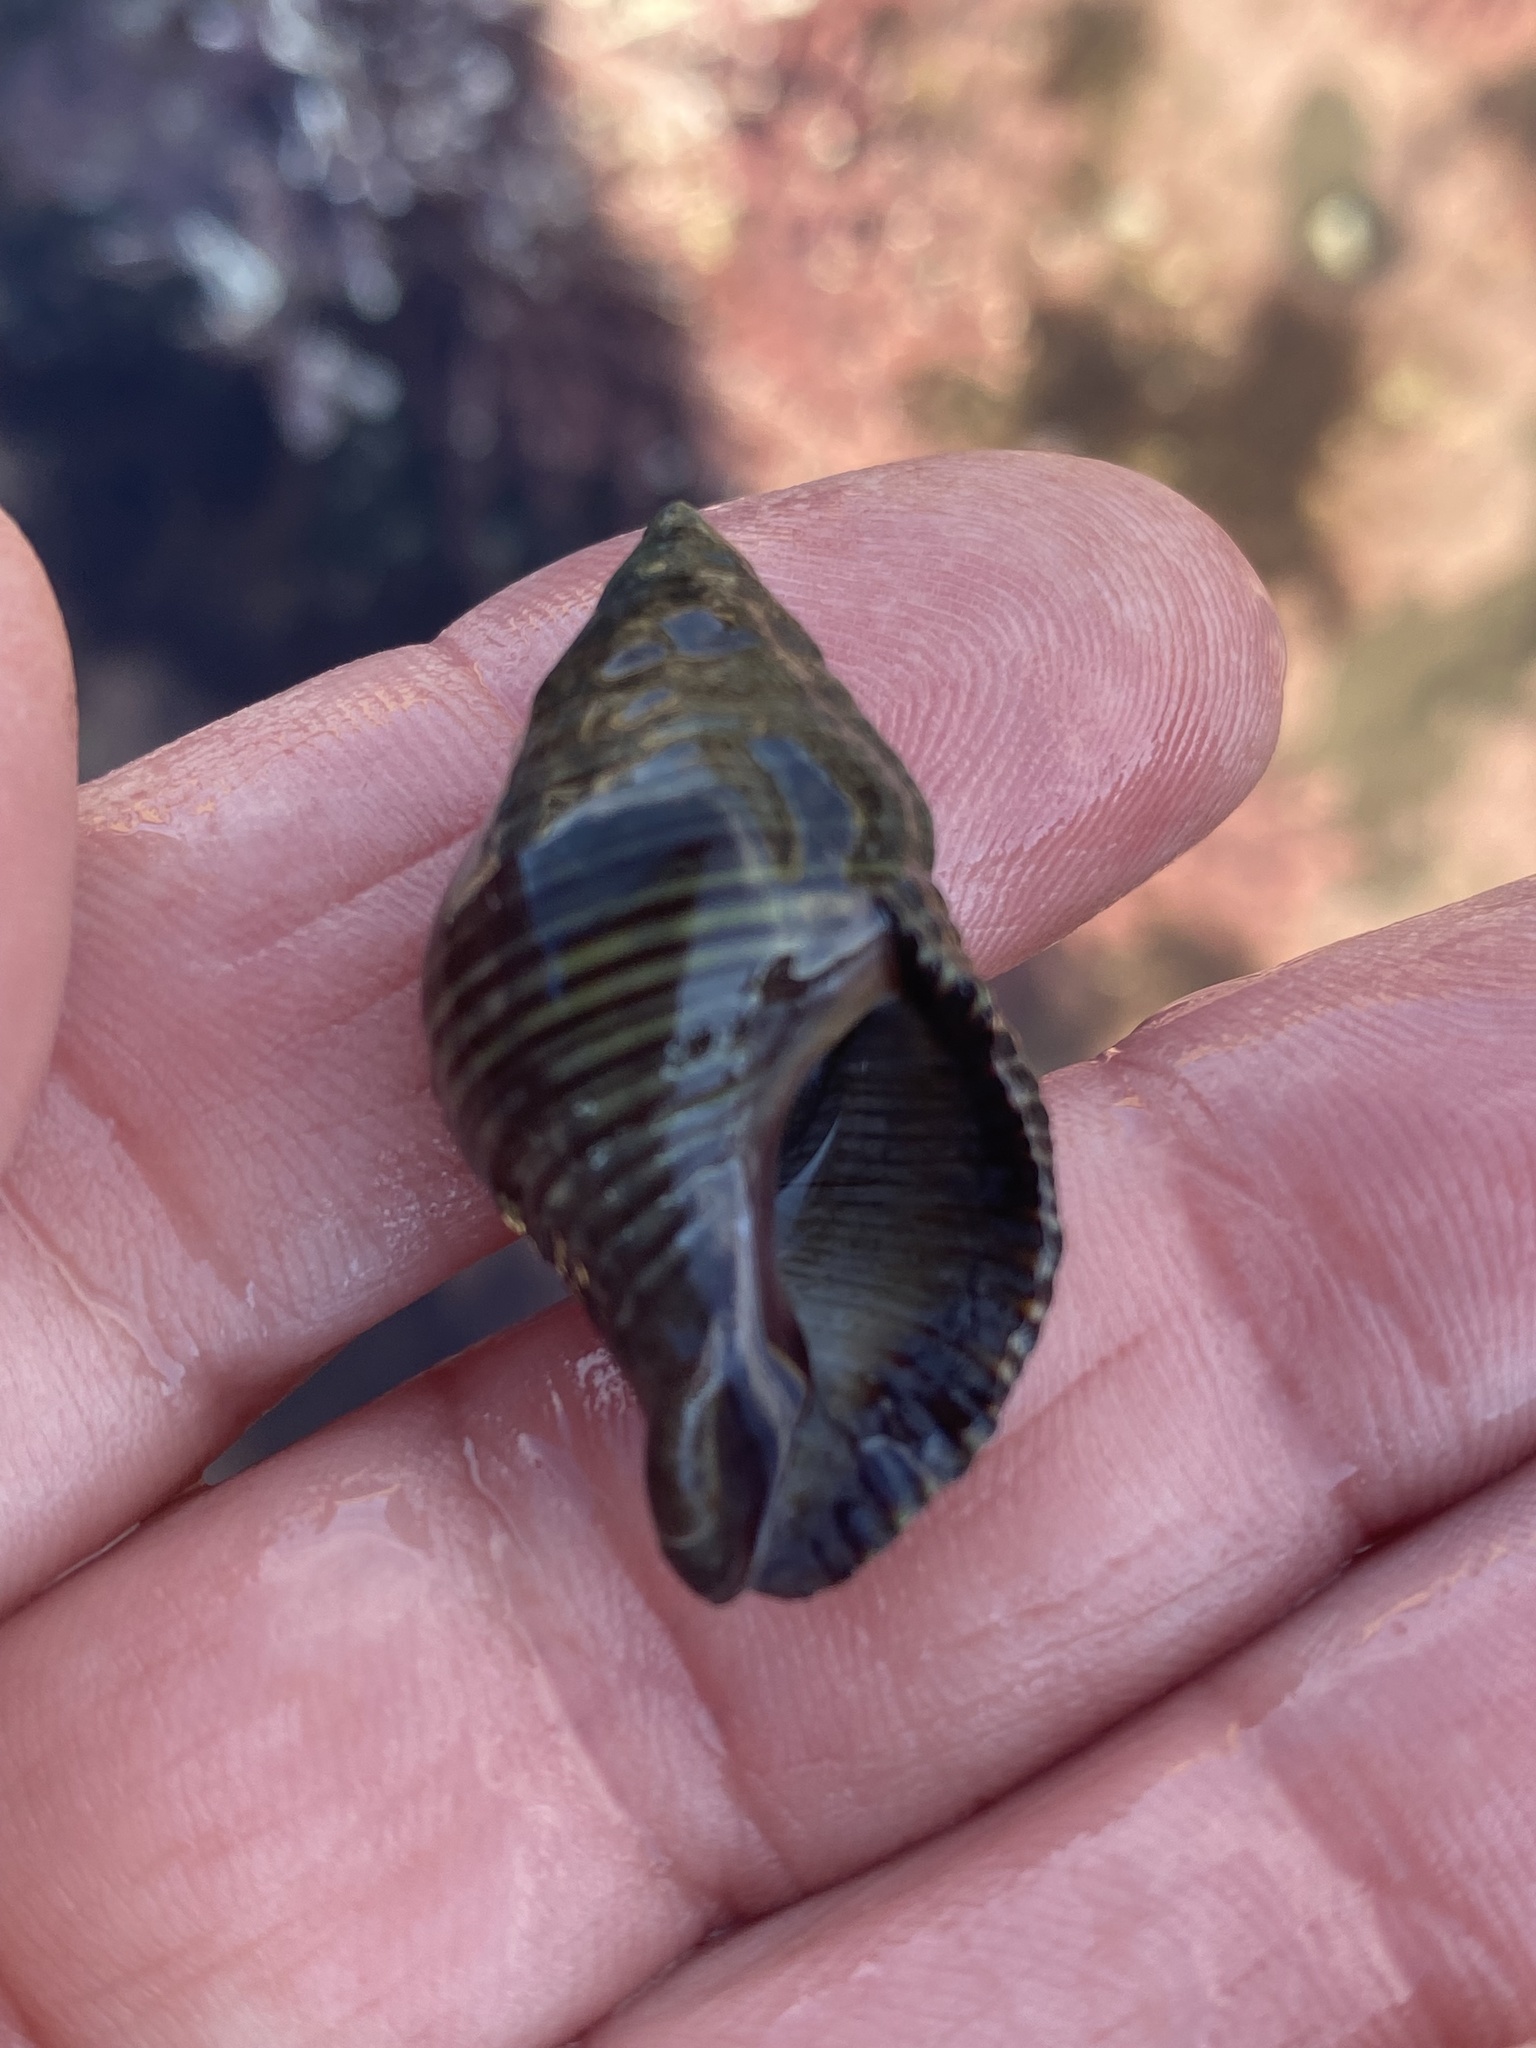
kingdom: Animalia
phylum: Mollusca
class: Gastropoda
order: Neogastropoda
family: Tudiclidae
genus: Lirabuccinum
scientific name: Lirabuccinum dirum
